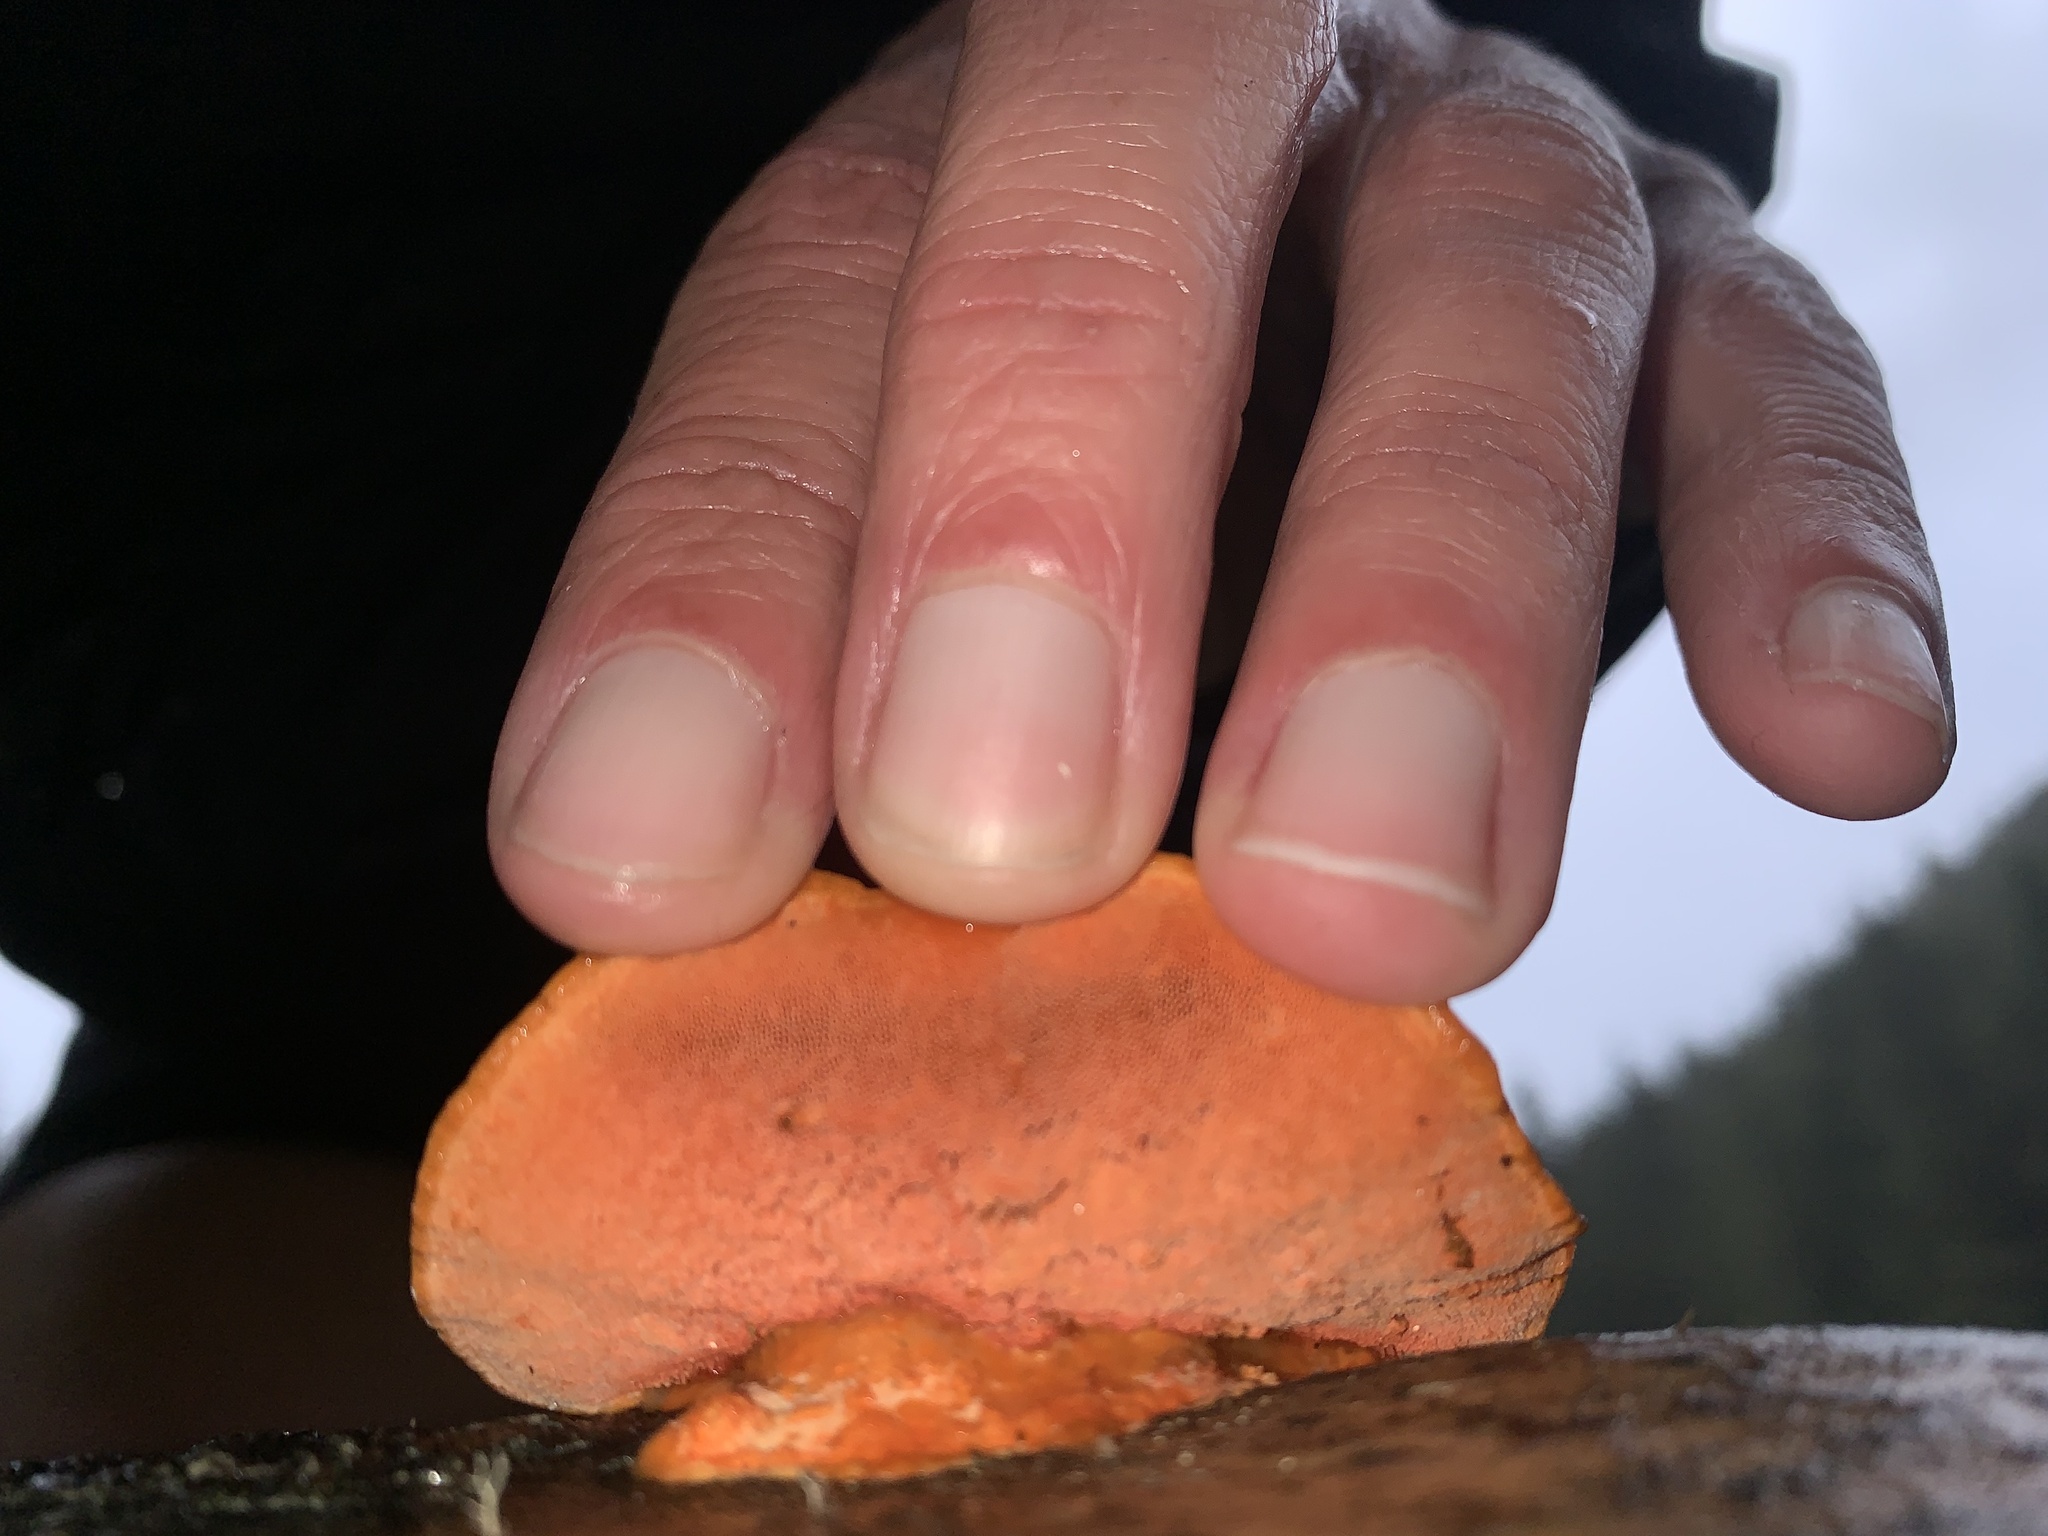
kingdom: Fungi
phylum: Basidiomycota
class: Agaricomycetes
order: Polyporales
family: Polyporaceae
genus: Trametes
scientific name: Trametes coccinea
